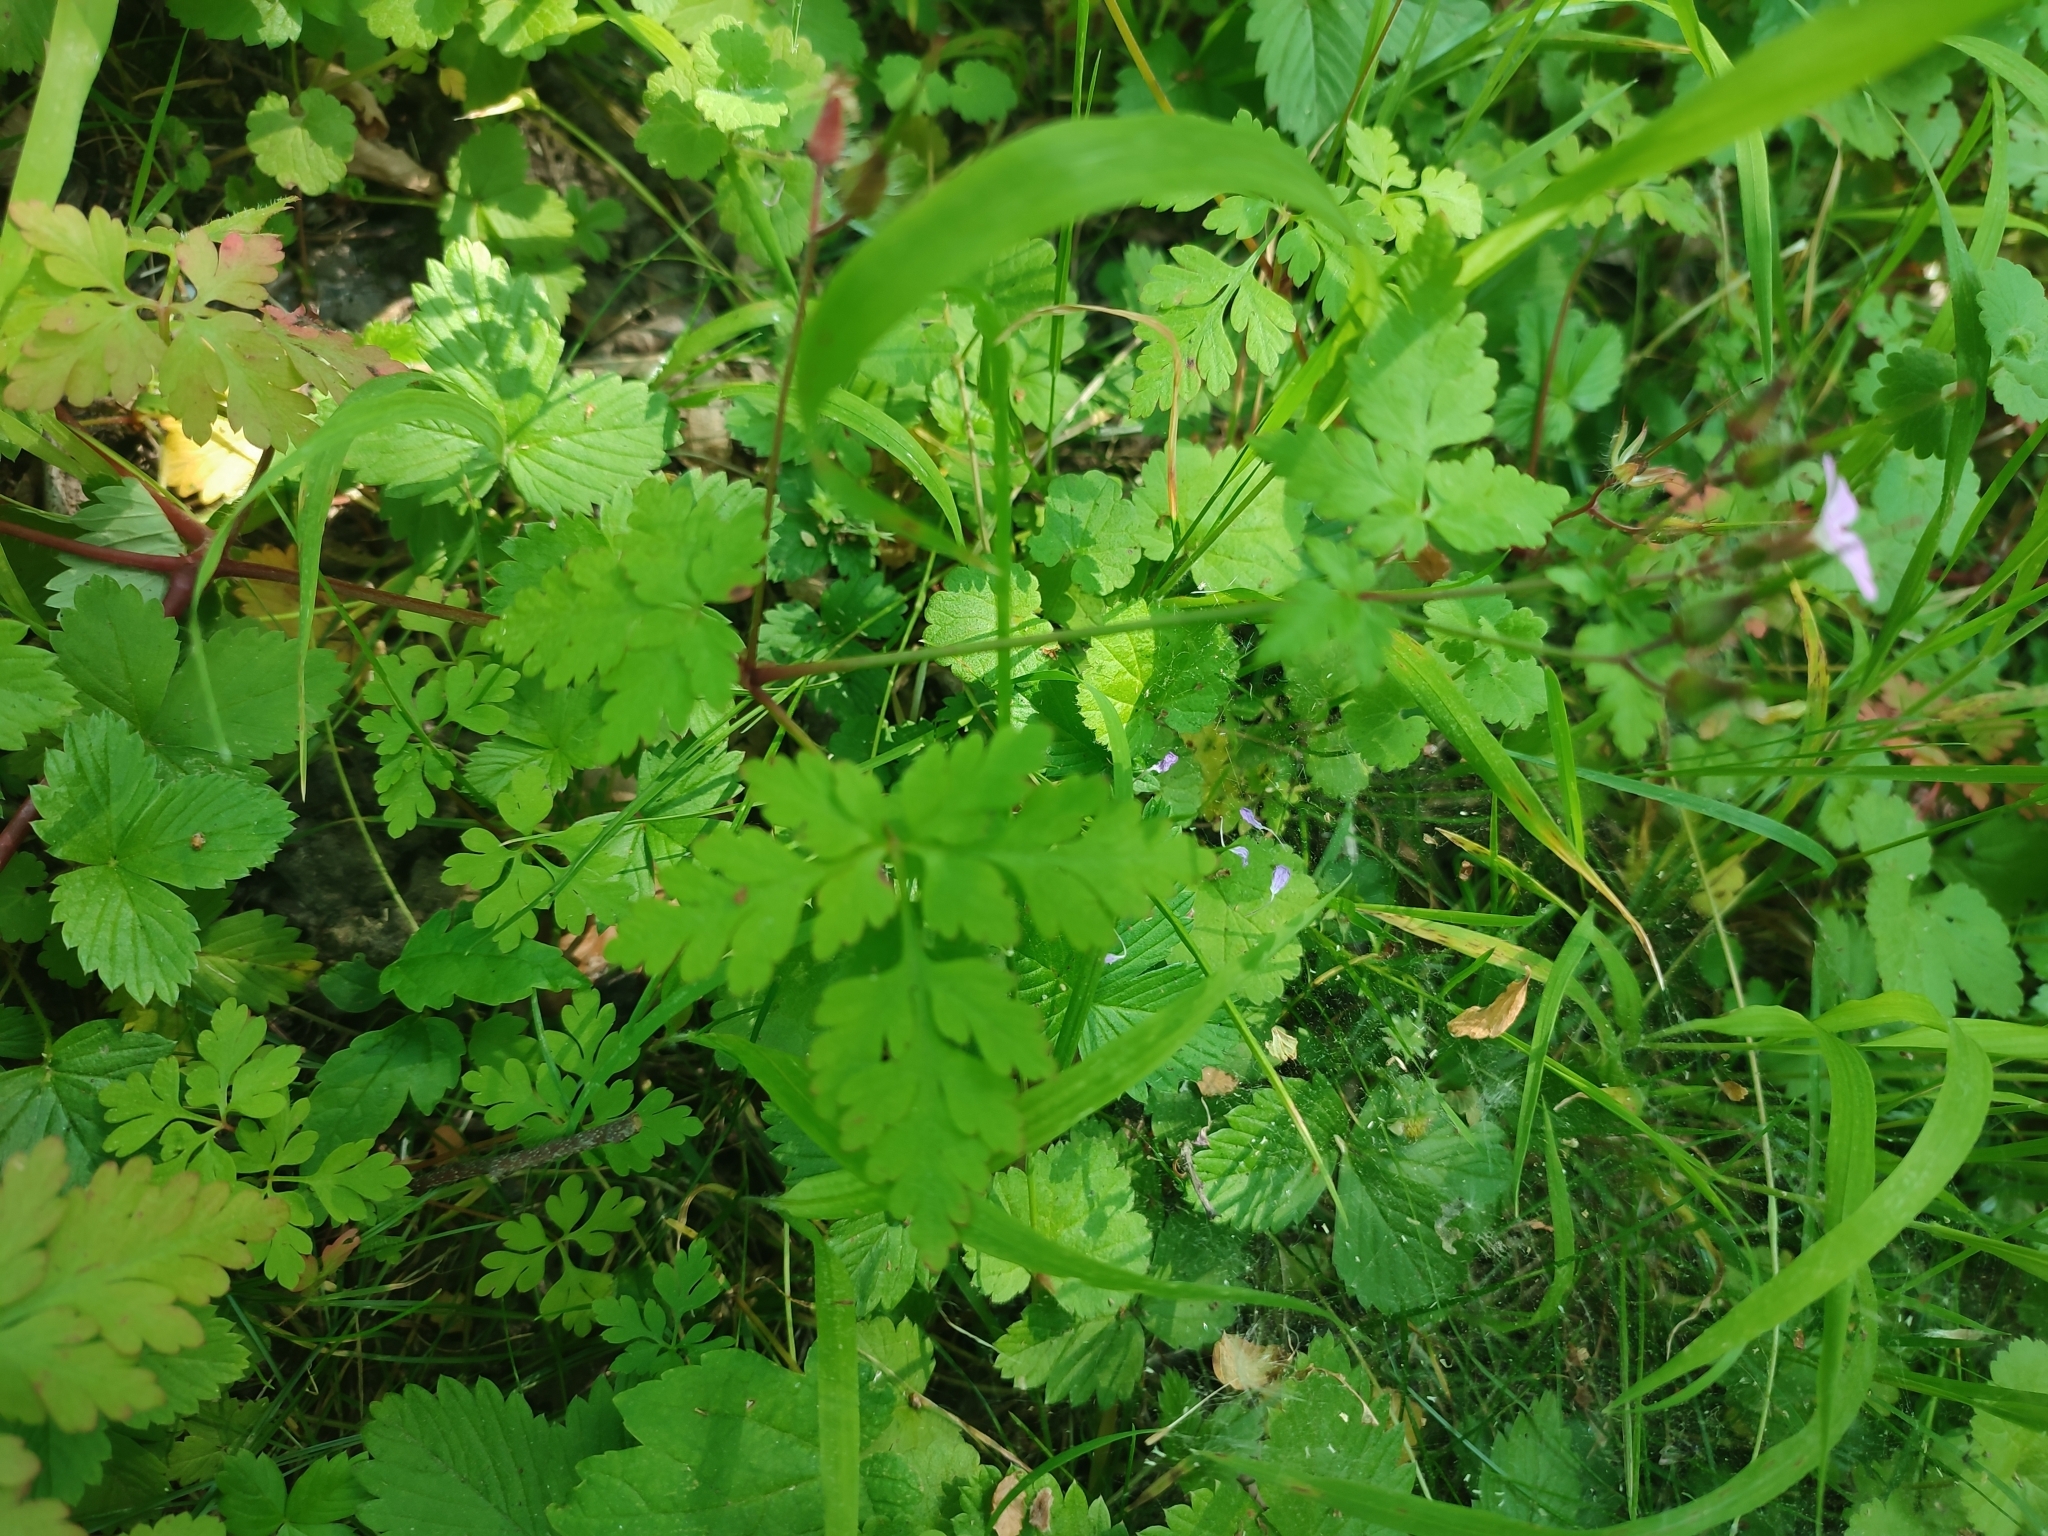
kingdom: Plantae
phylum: Tracheophyta
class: Magnoliopsida
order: Geraniales
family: Geraniaceae
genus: Geranium
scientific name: Geranium robertianum
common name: Herb-robert
